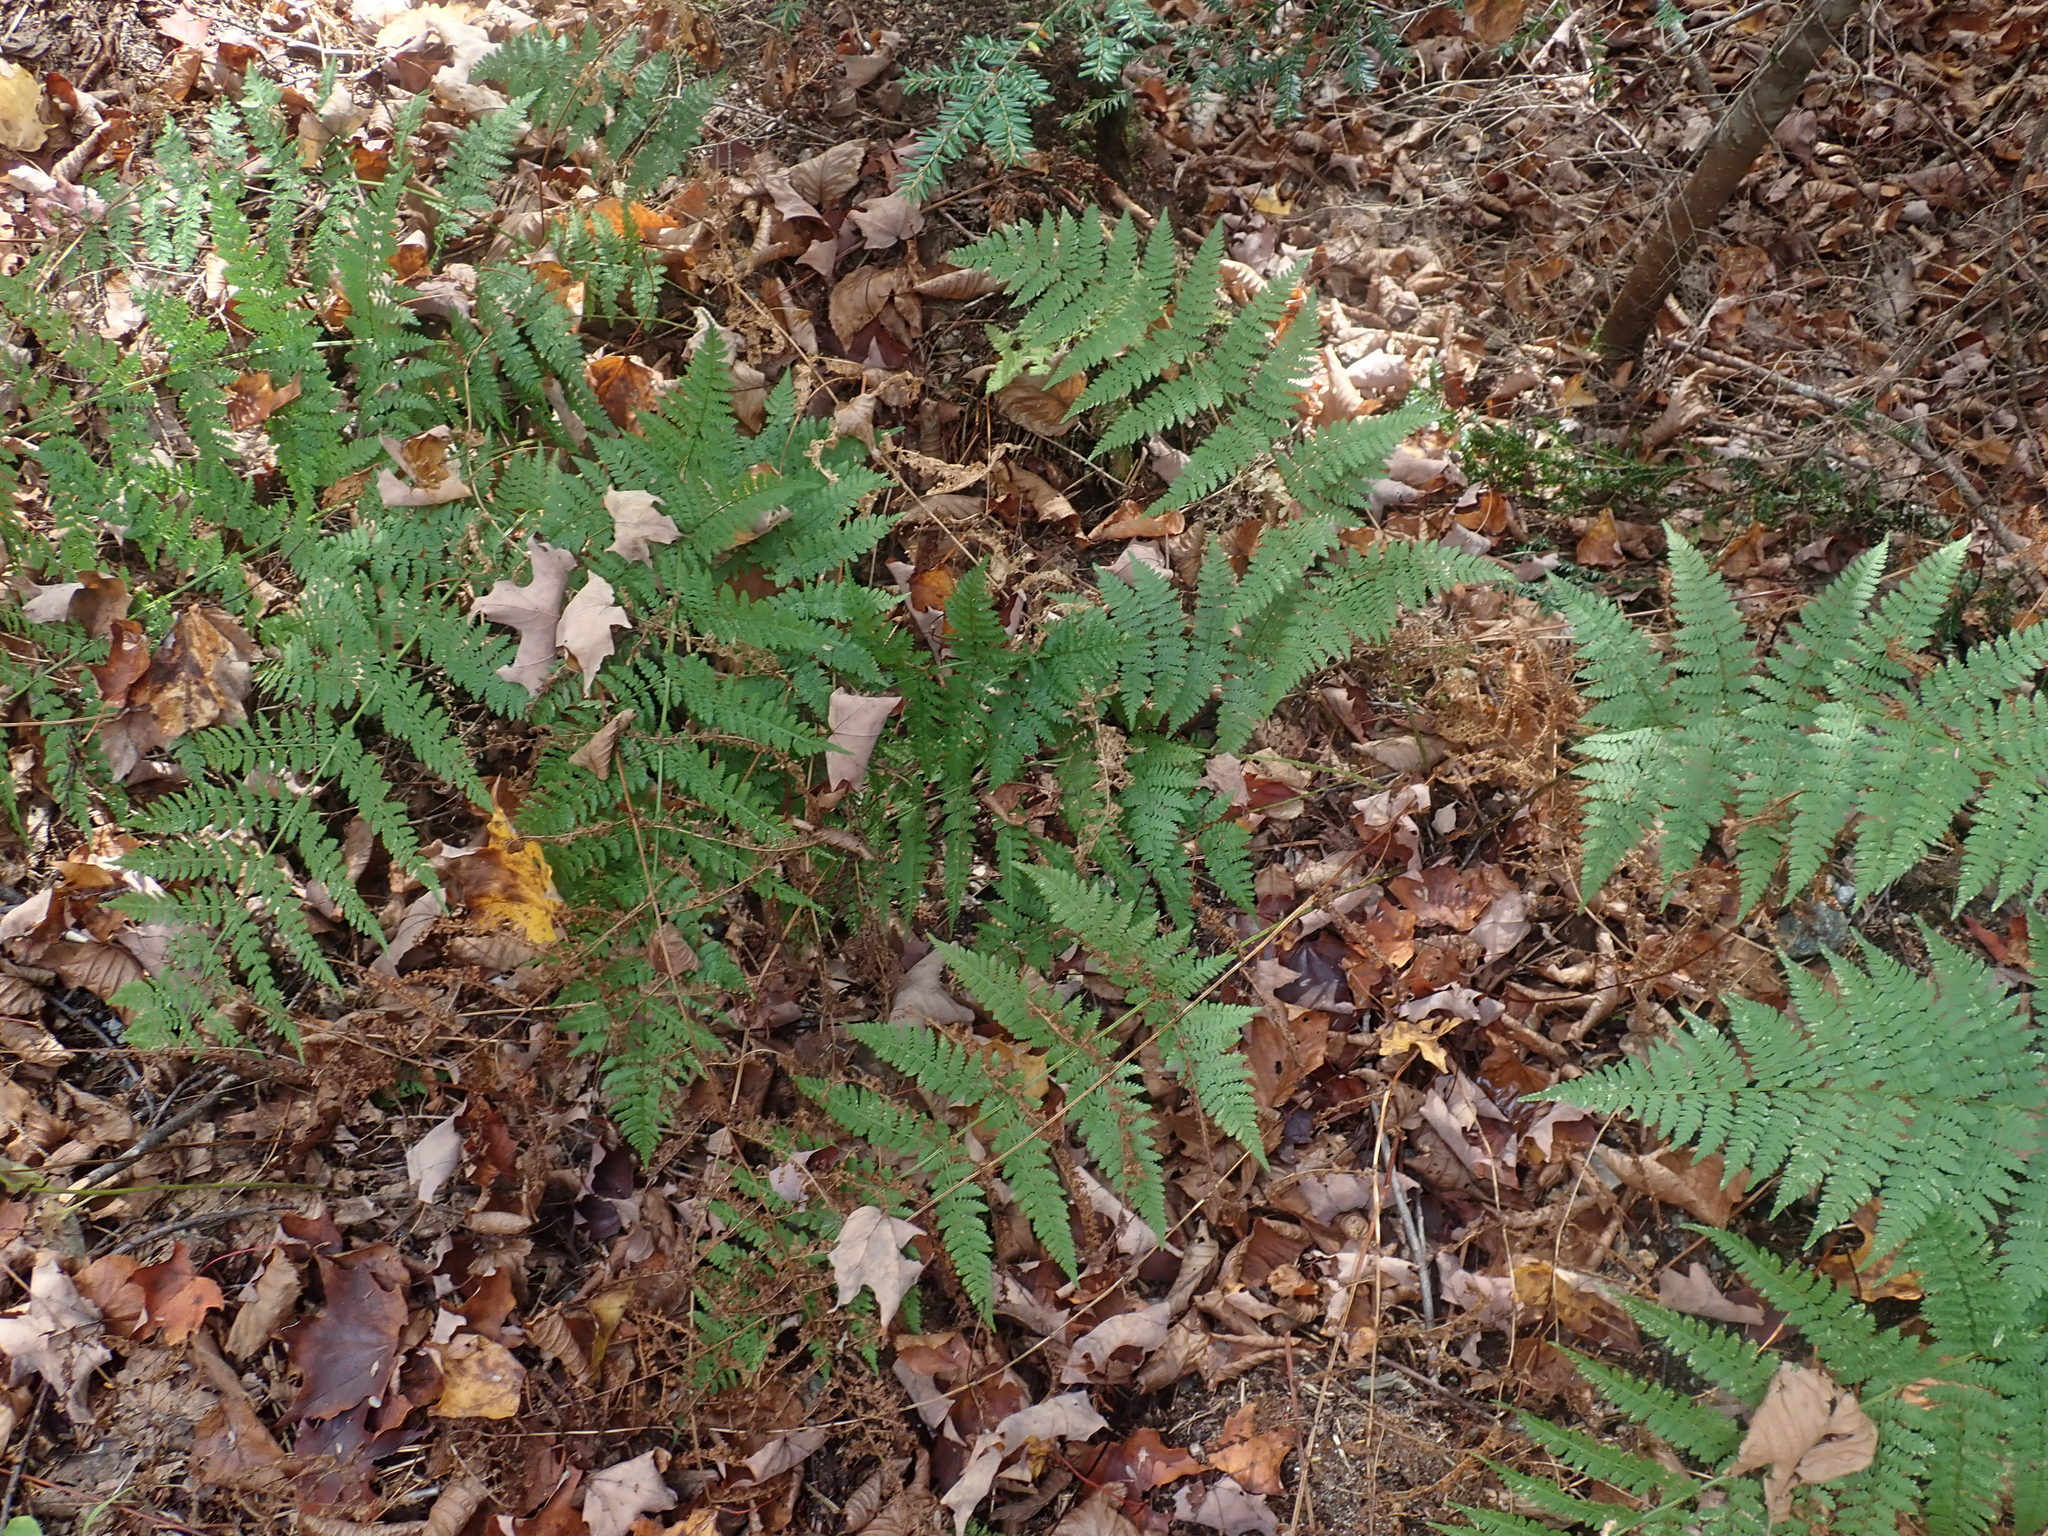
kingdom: Plantae
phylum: Tracheophyta
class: Polypodiopsida
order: Polypodiales
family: Dryopteridaceae
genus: Dryopteris
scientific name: Dryopteris intermedia
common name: Evergreen wood fern
